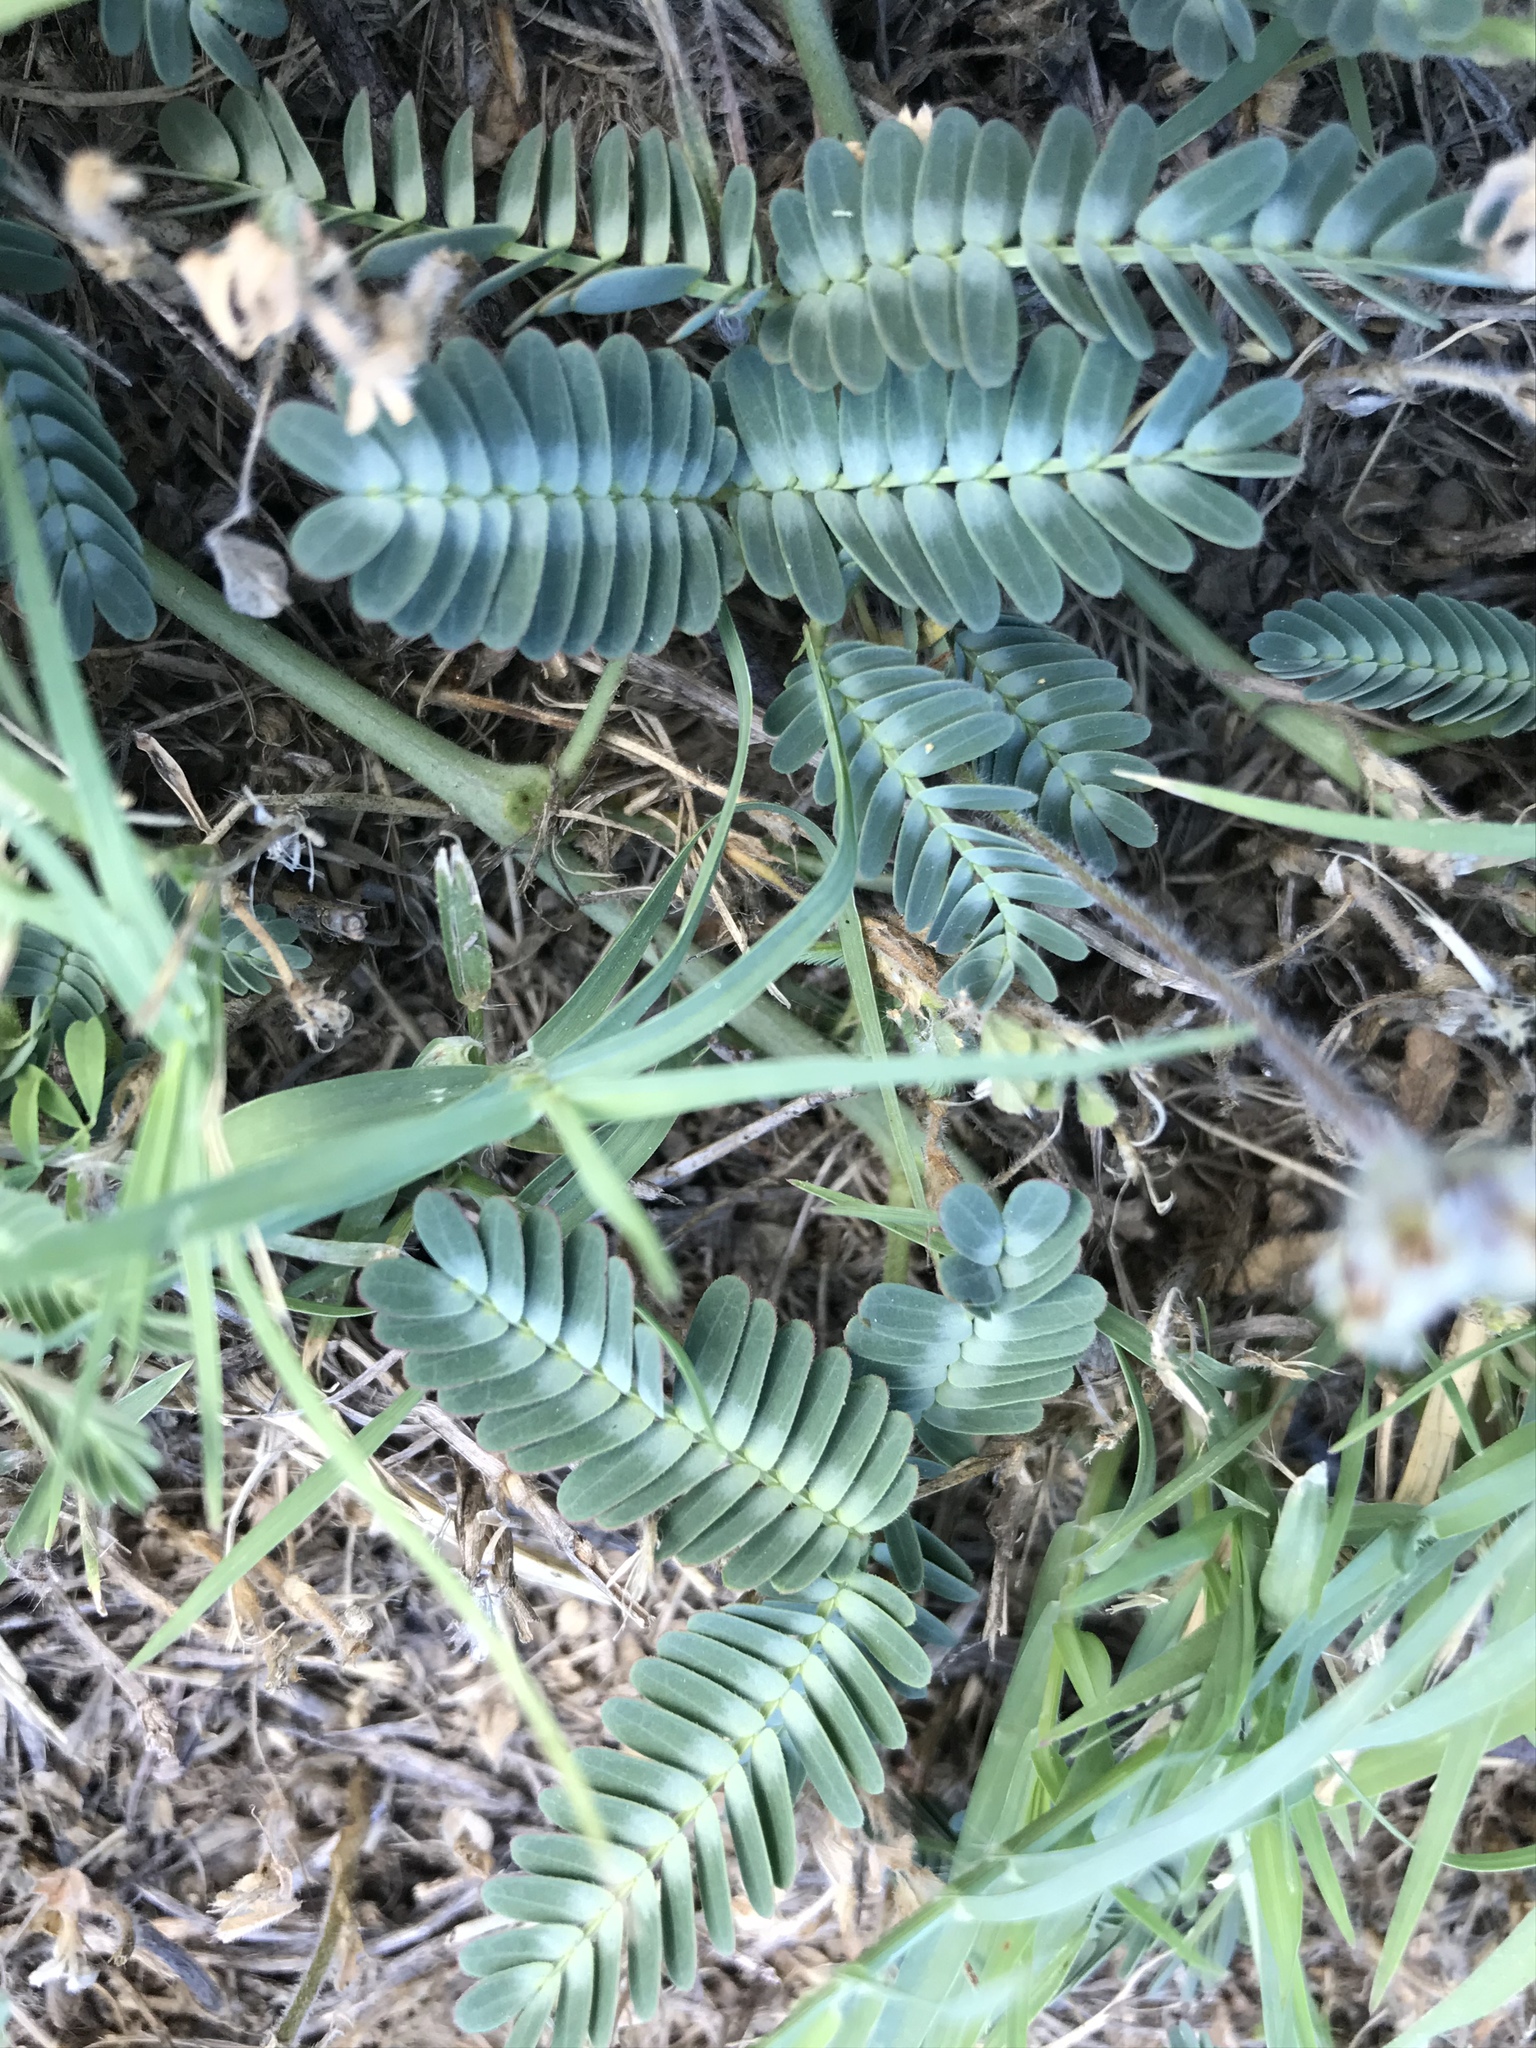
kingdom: Plantae
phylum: Tracheophyta
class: Magnoliopsida
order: Fabales
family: Fabaceae
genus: Neptunia
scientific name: Neptunia pubescens
